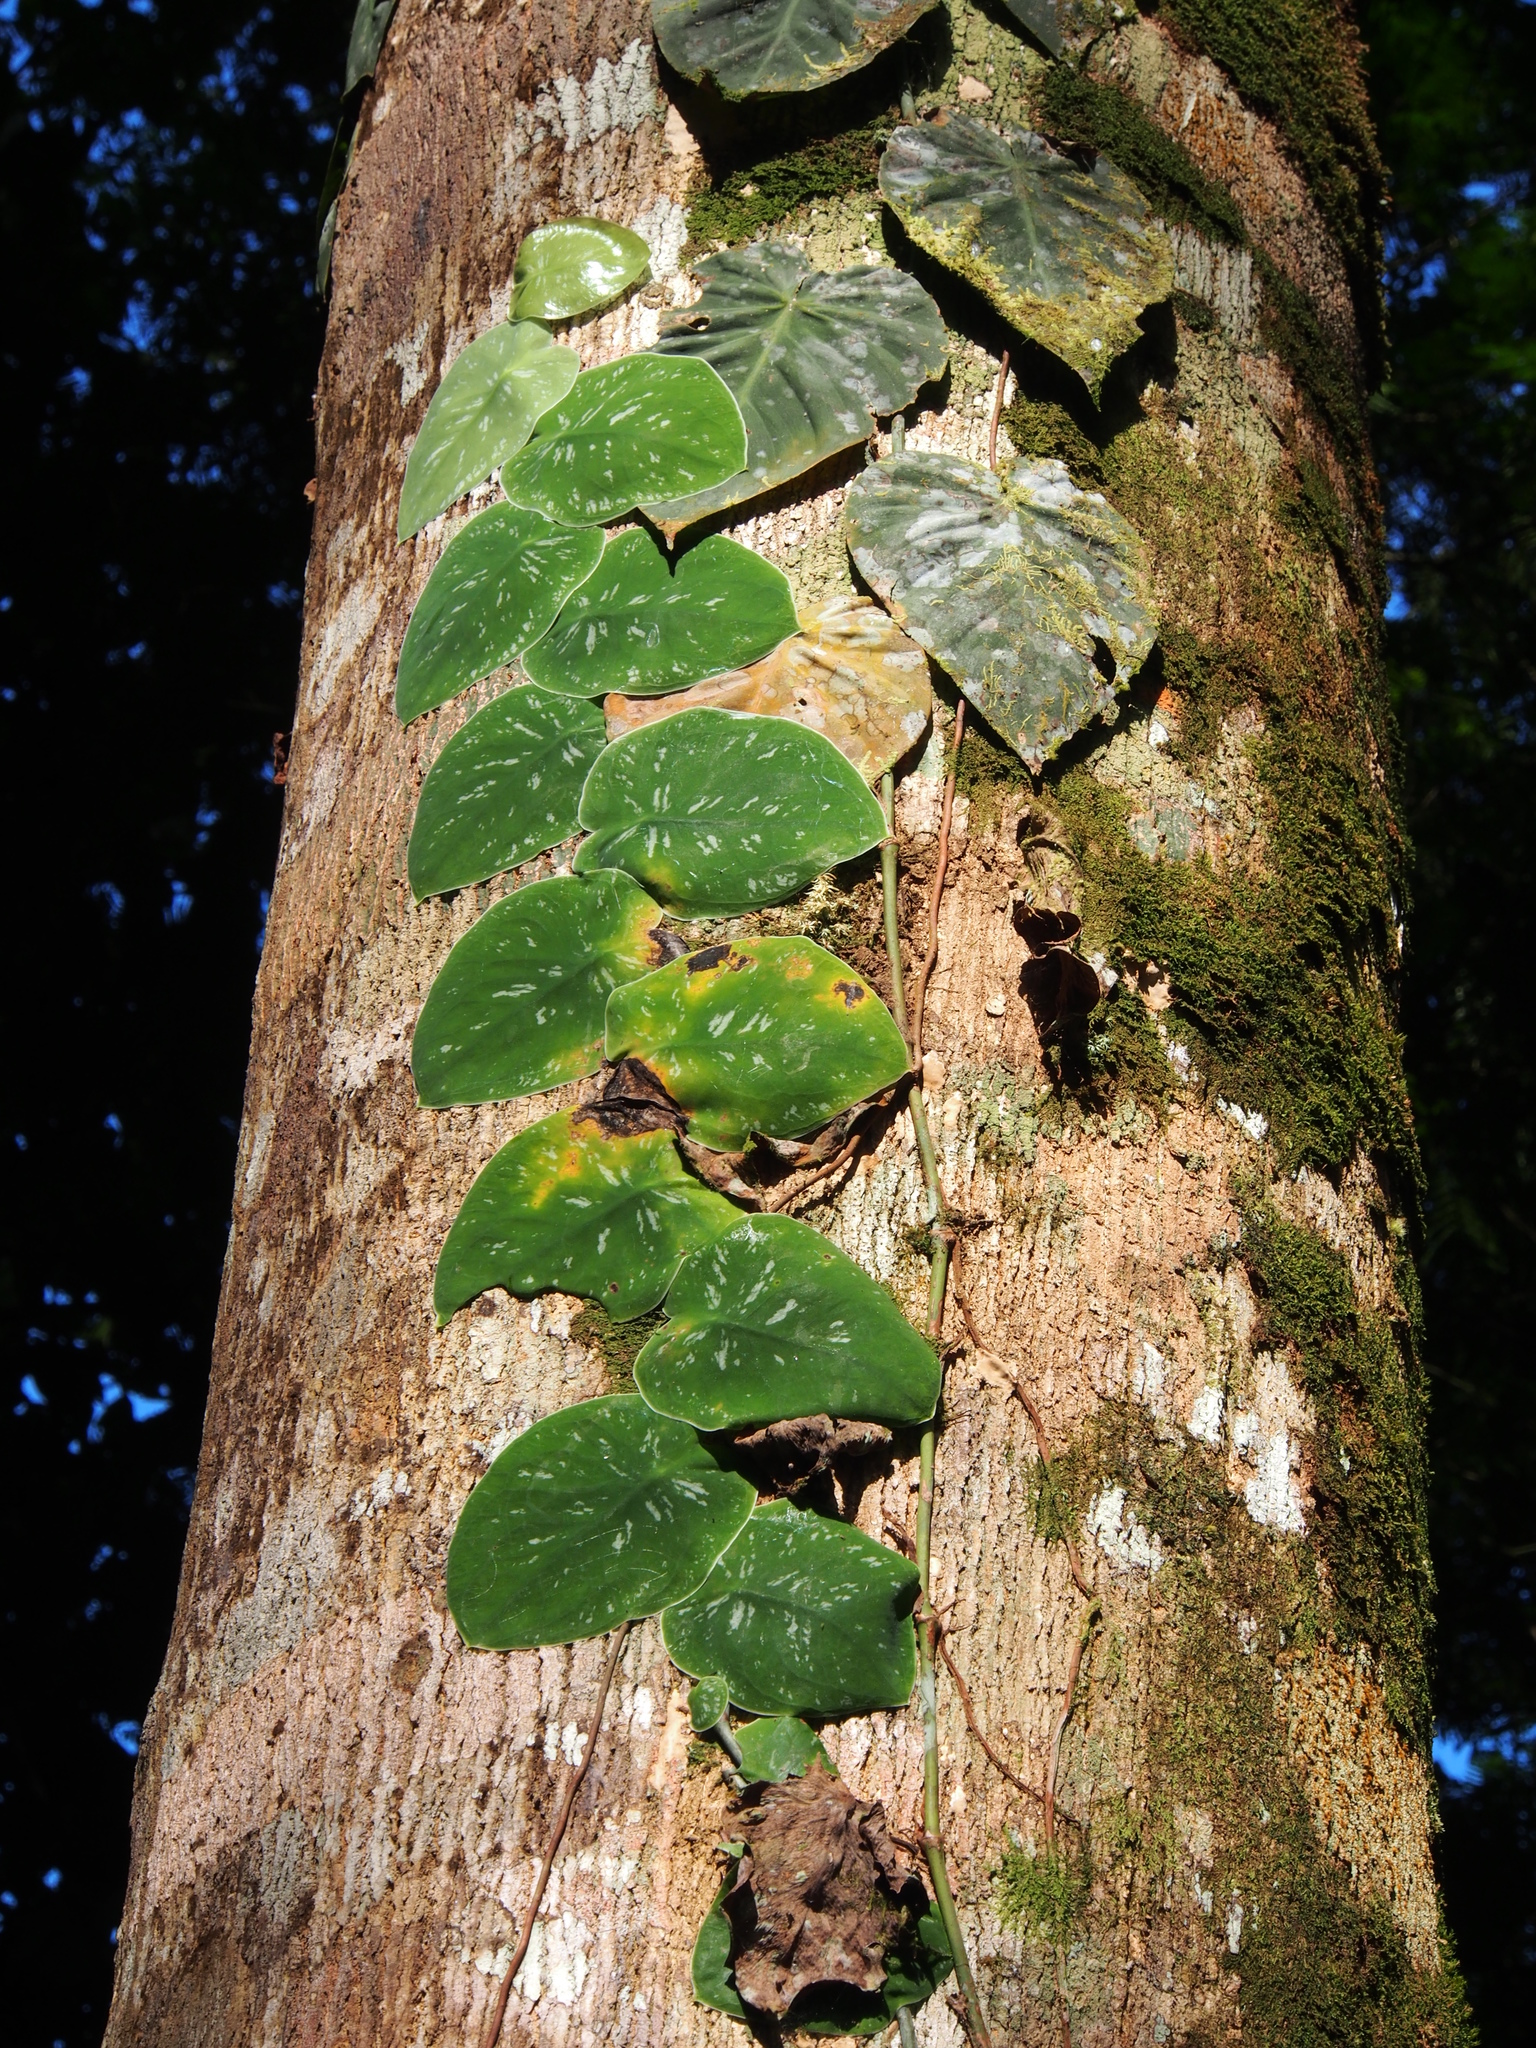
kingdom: Plantae
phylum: Tracheophyta
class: Liliopsida
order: Alismatales
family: Araceae
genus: Monstera
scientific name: Monstera tuberculata
